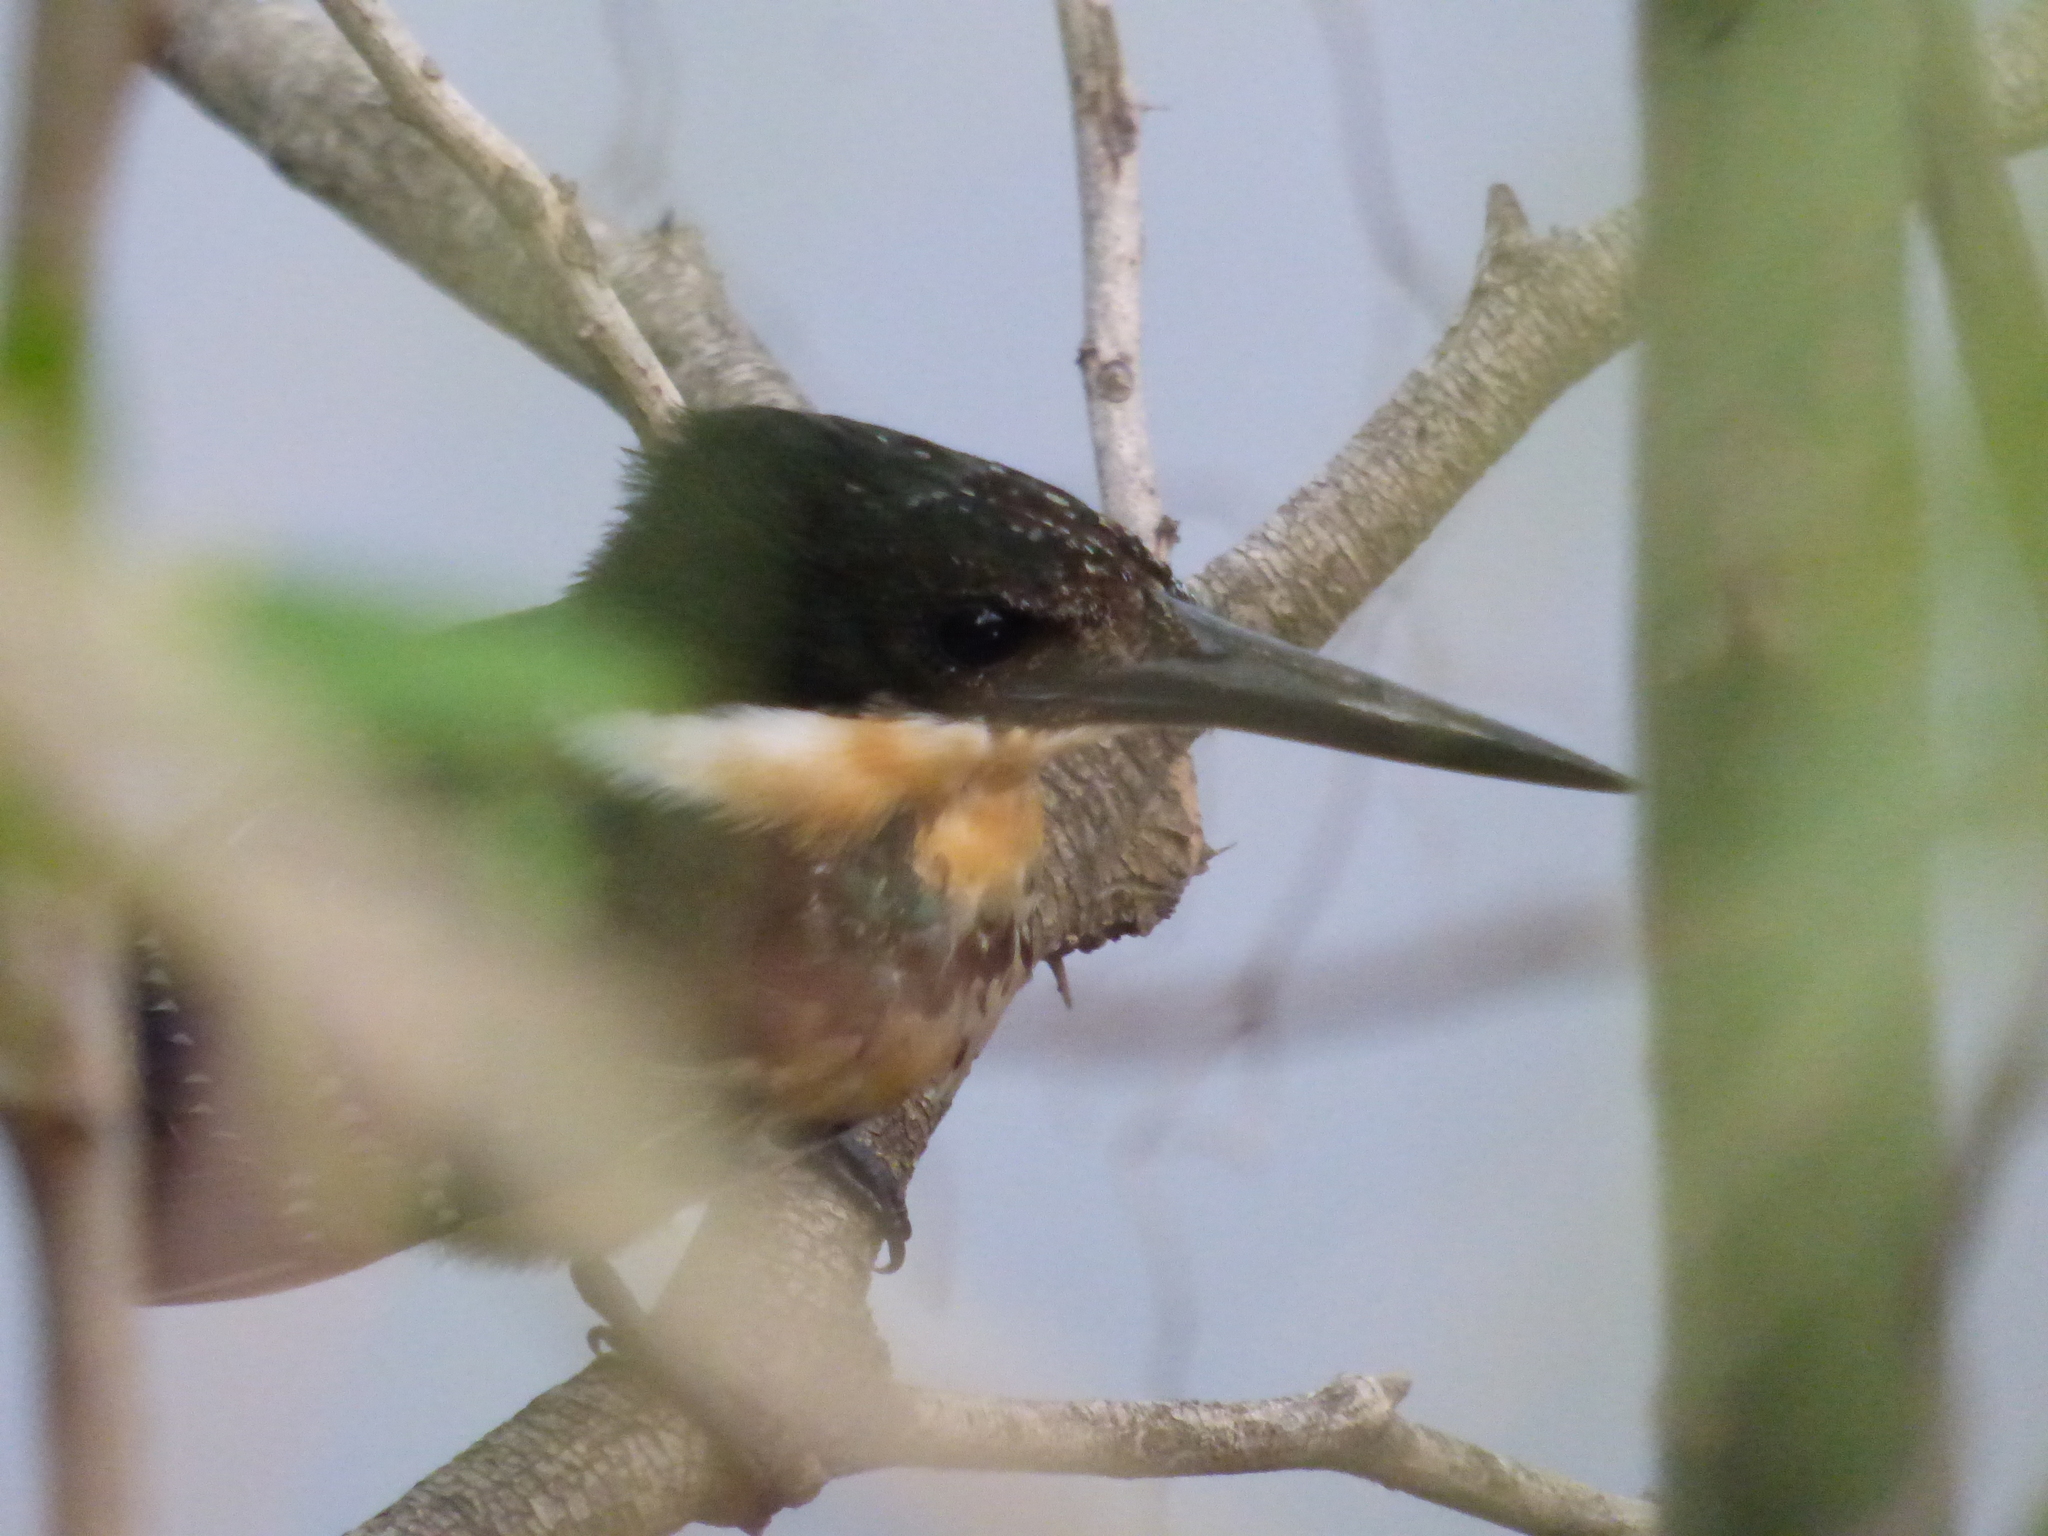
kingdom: Animalia
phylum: Chordata
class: Aves
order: Coraciiformes
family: Alcedinidae
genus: Chloroceryle
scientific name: Chloroceryle americana
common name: Green kingfisher
